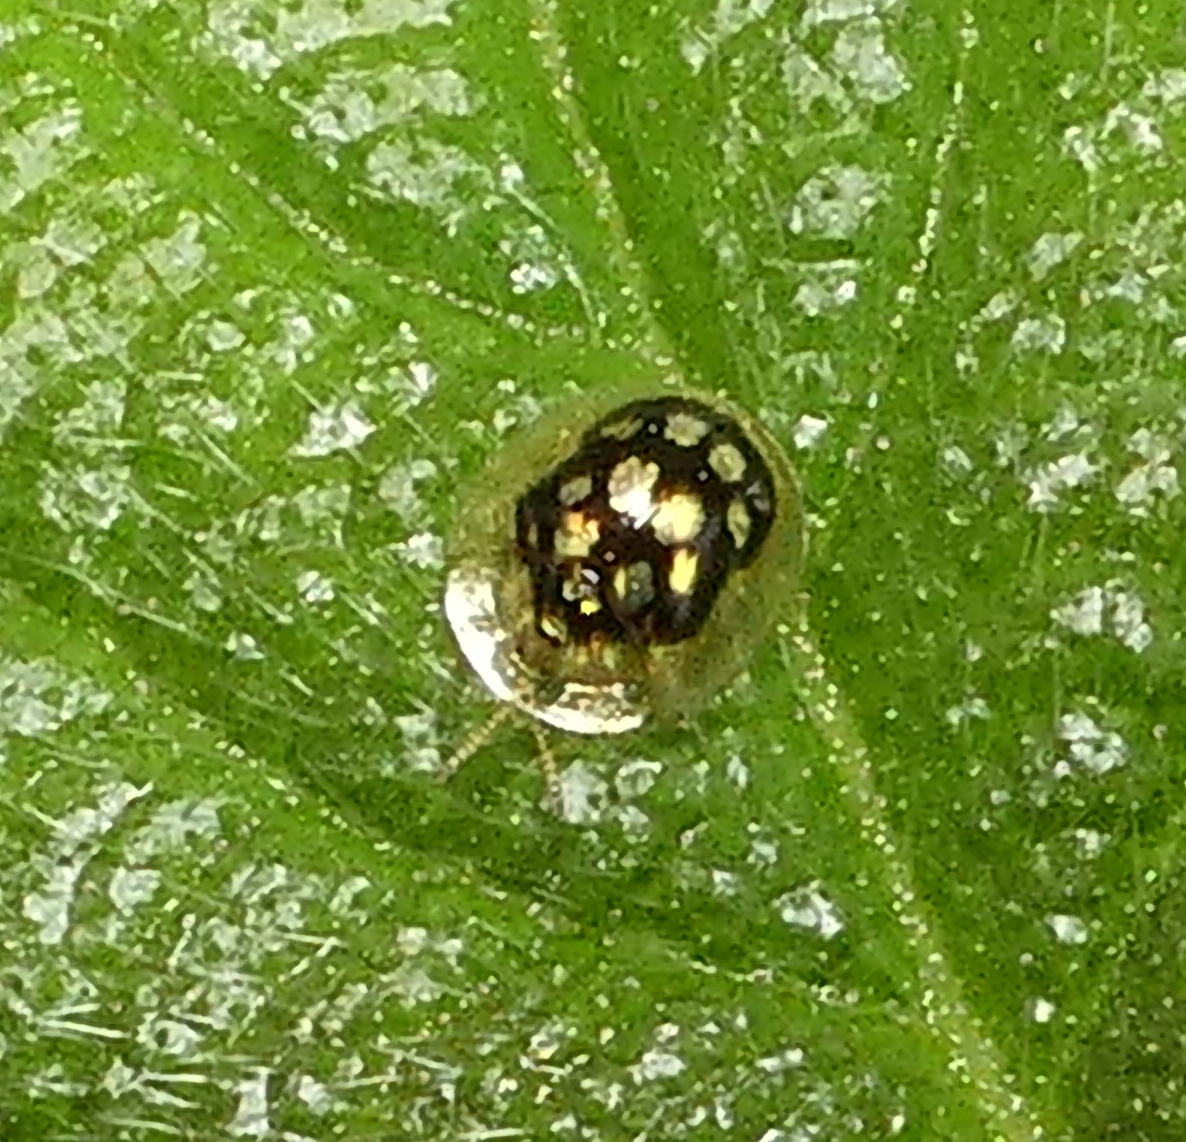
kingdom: Animalia
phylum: Arthropoda
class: Insecta
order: Coleoptera
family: Chrysomelidae
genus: Plagiometriona
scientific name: Plagiometriona microcera
